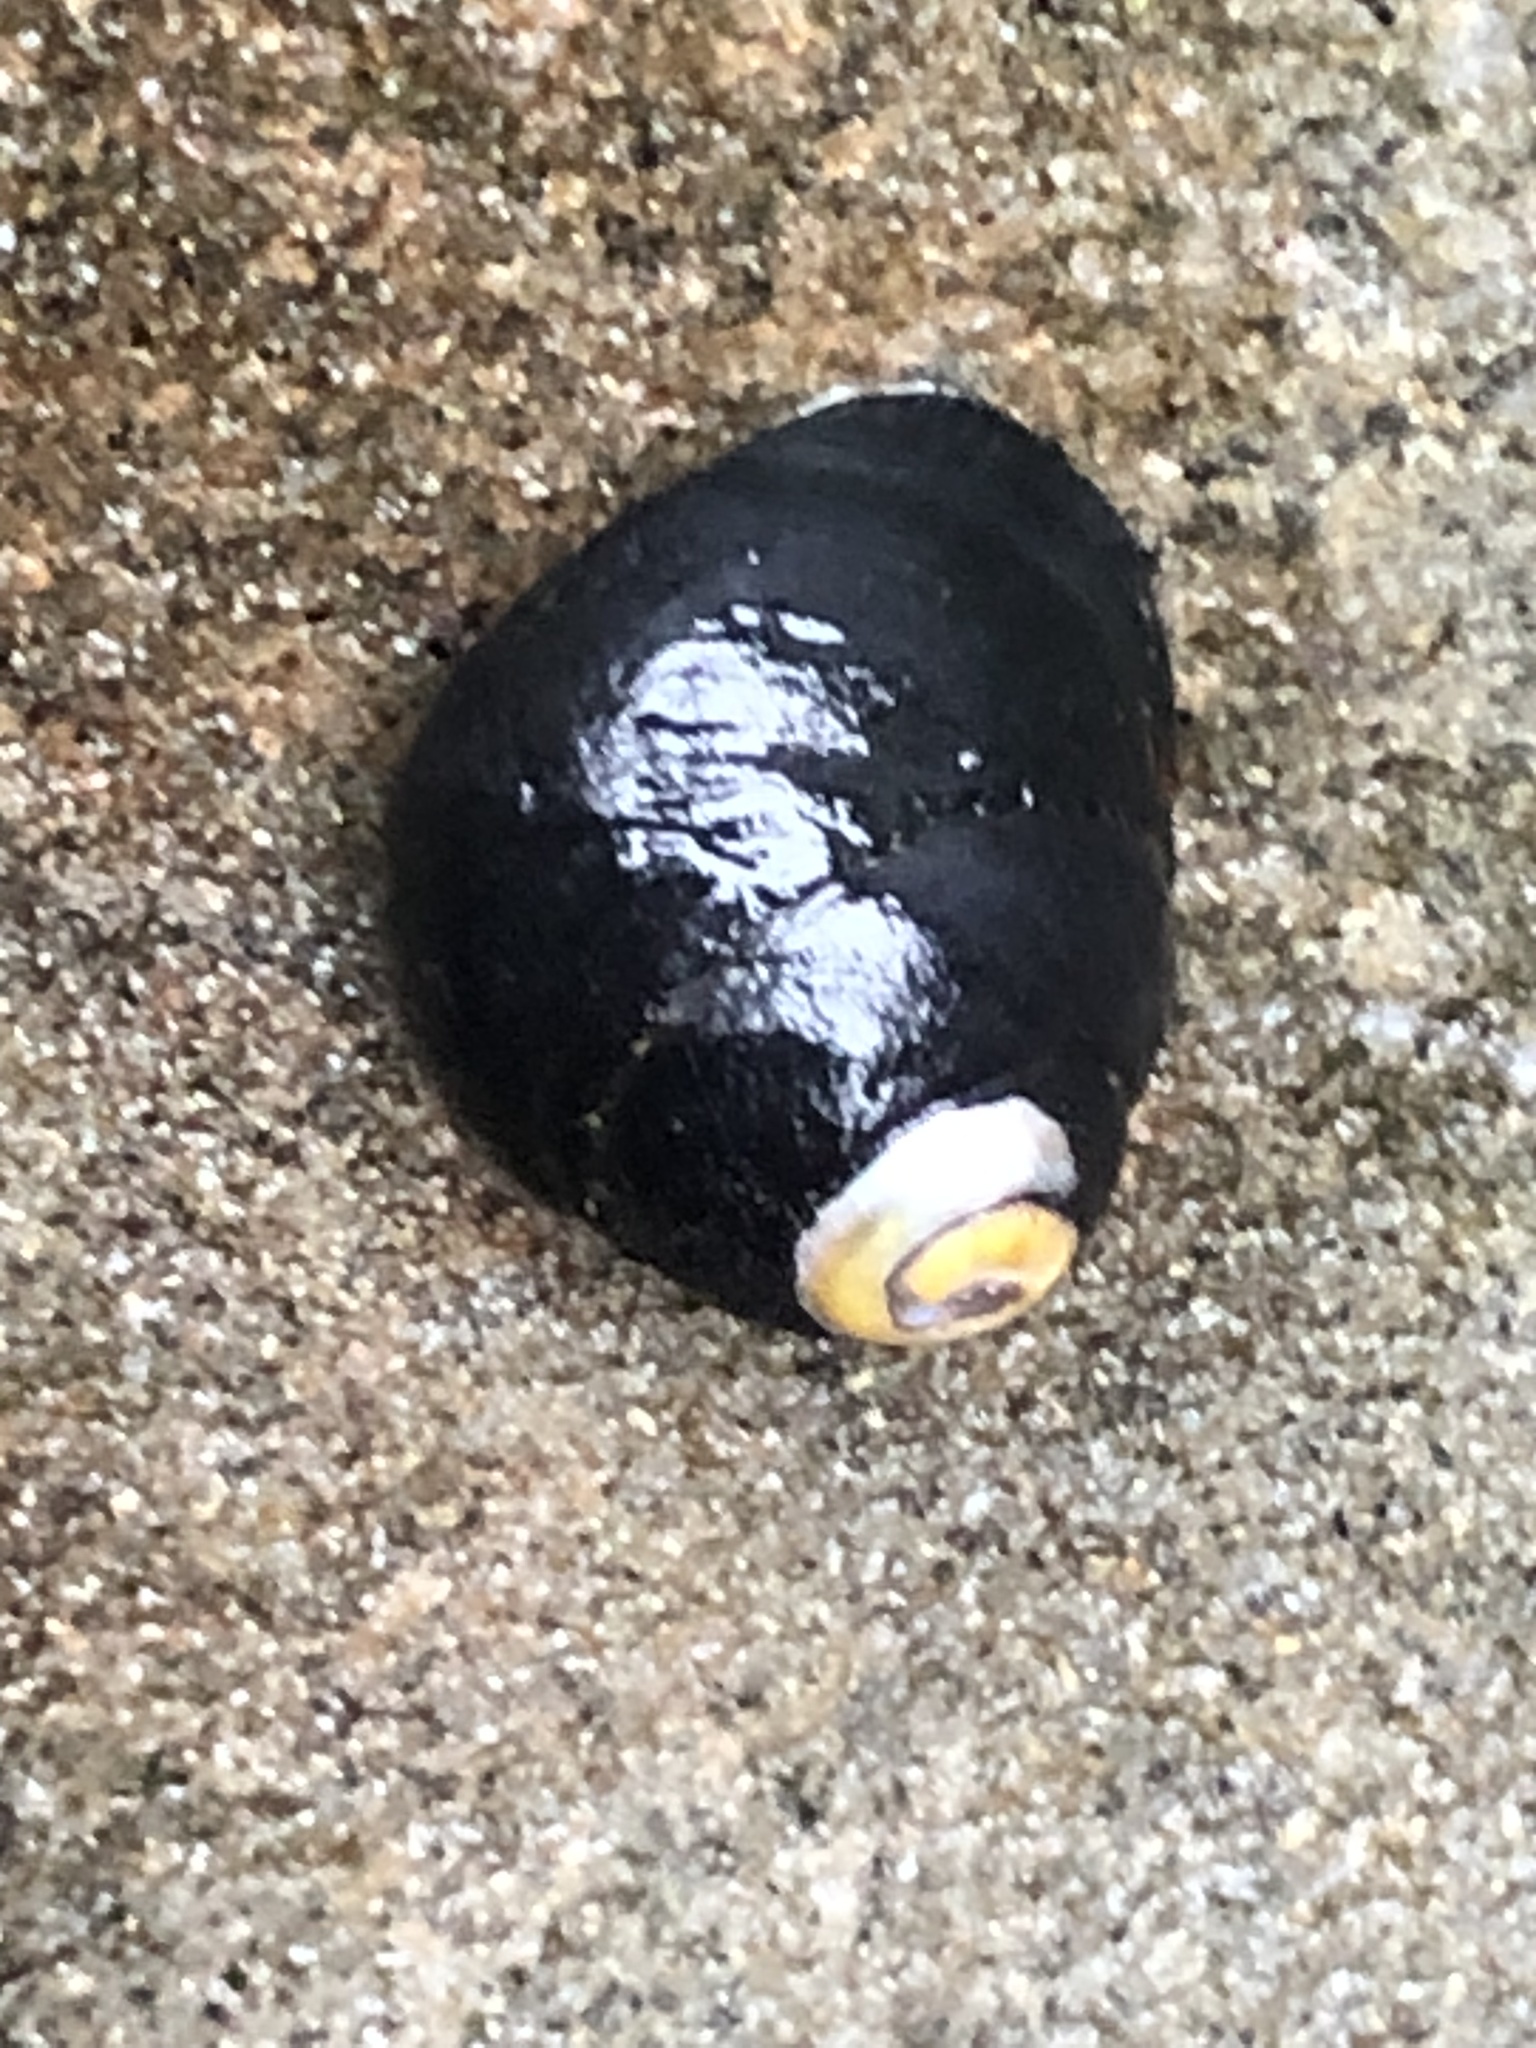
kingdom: Animalia
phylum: Mollusca
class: Gastropoda
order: Trochida
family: Tegulidae
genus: Tegula
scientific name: Tegula funebralis
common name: Black tegula
